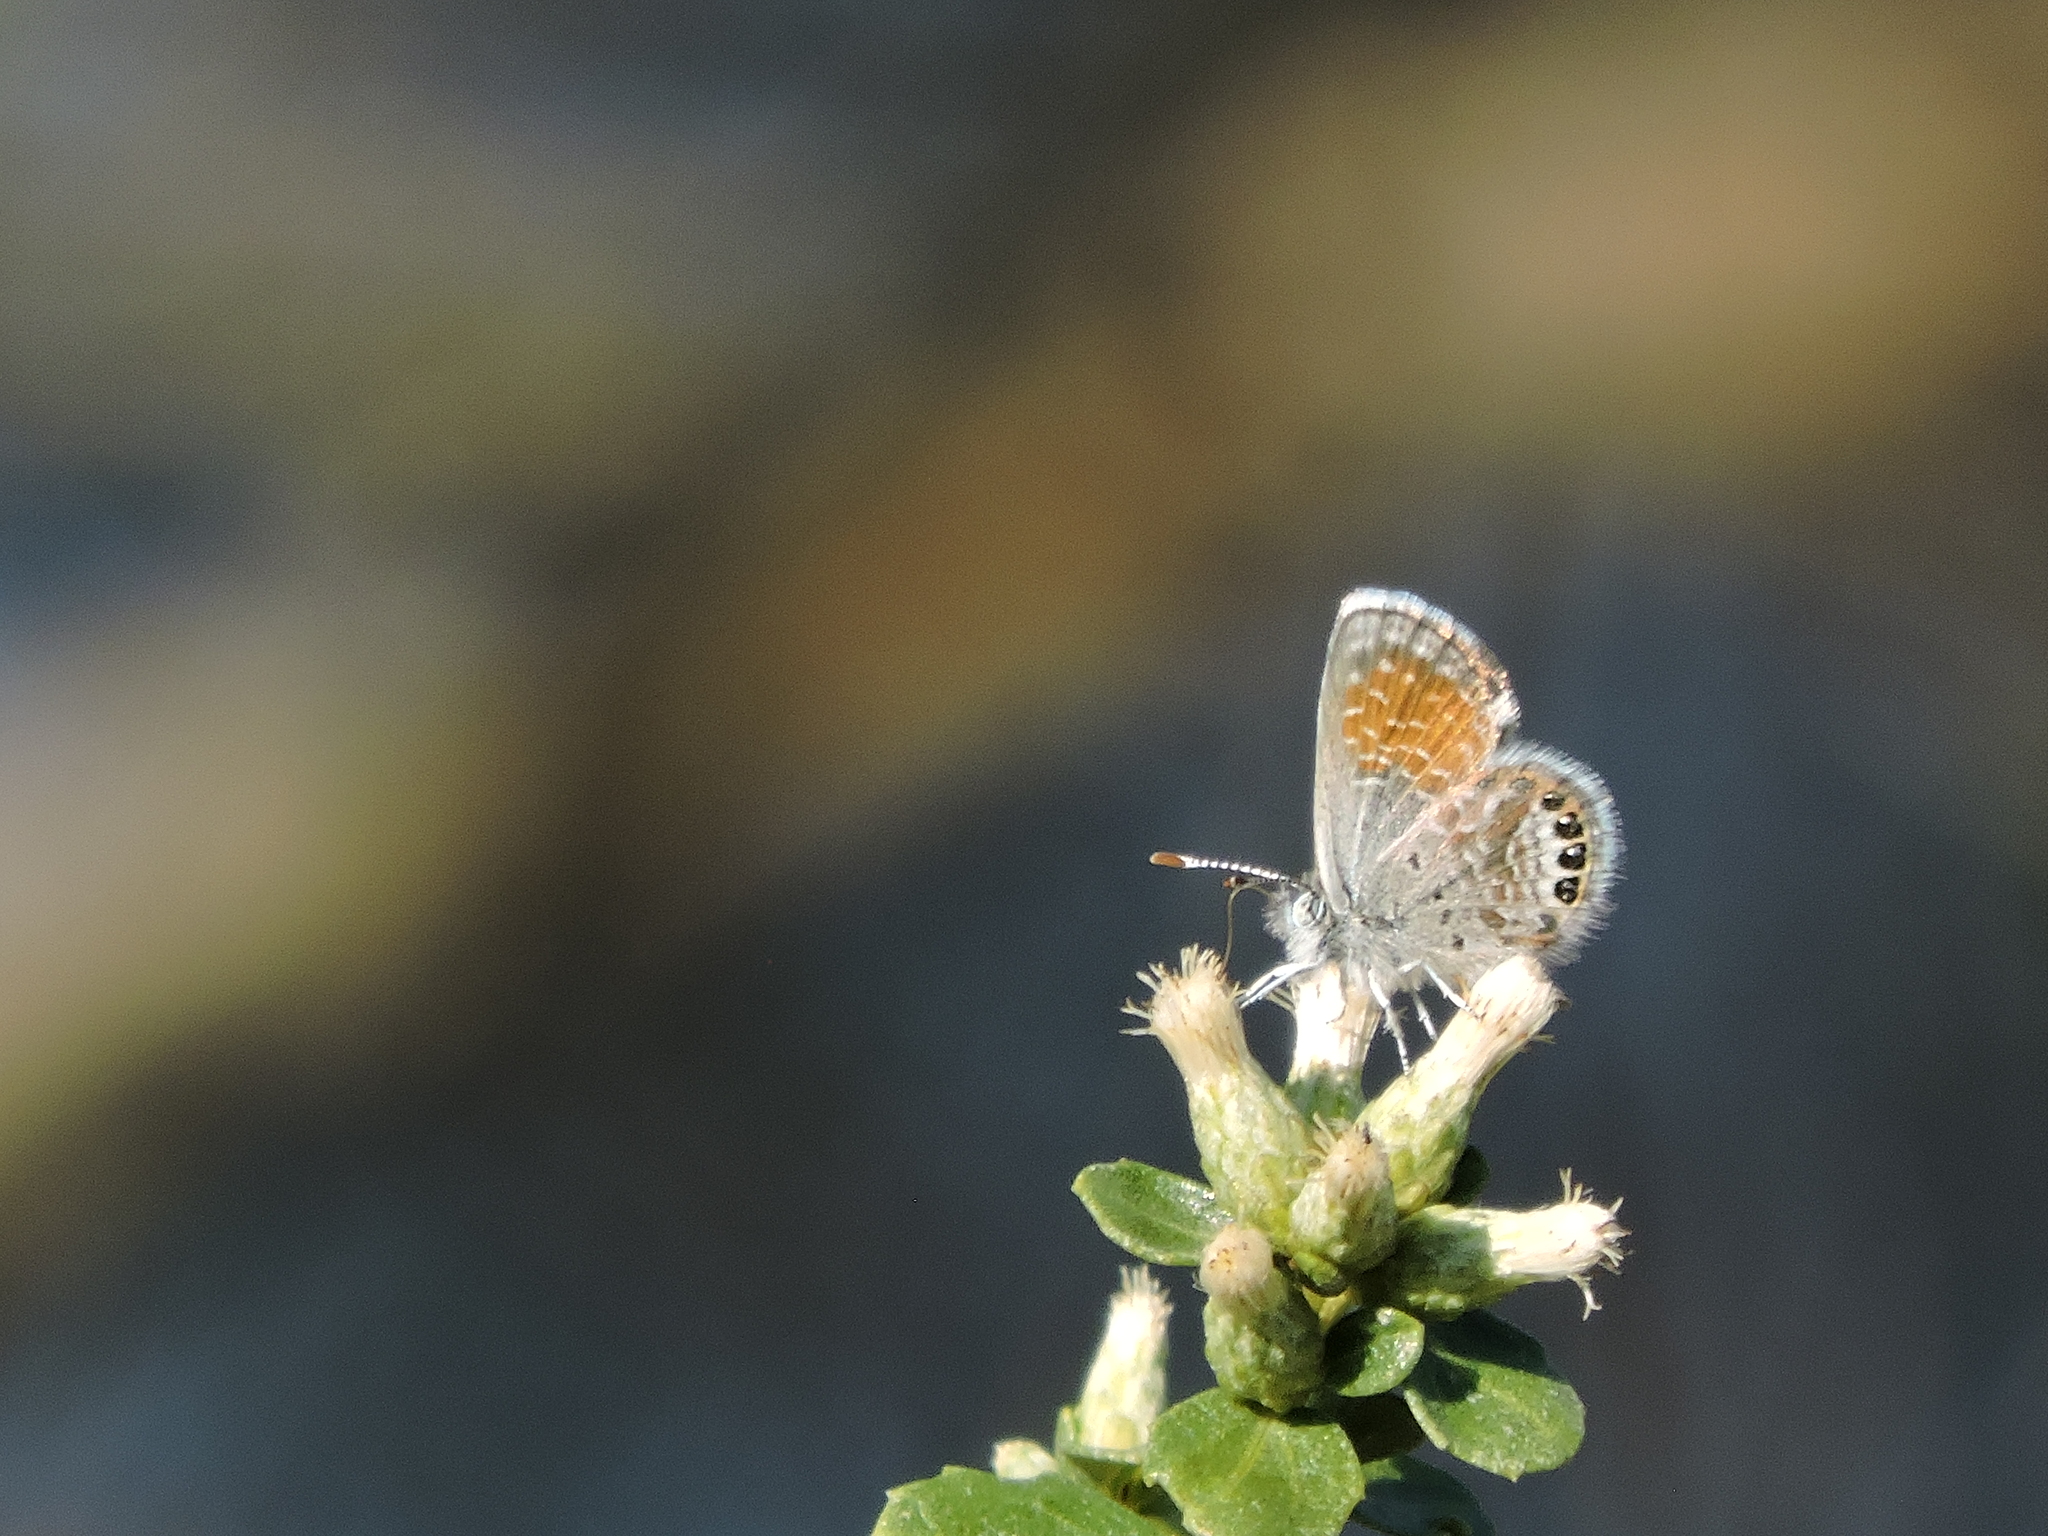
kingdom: Animalia
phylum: Arthropoda
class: Insecta
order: Lepidoptera
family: Lycaenidae
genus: Brephidium
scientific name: Brephidium exilis
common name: Pygmy blue
